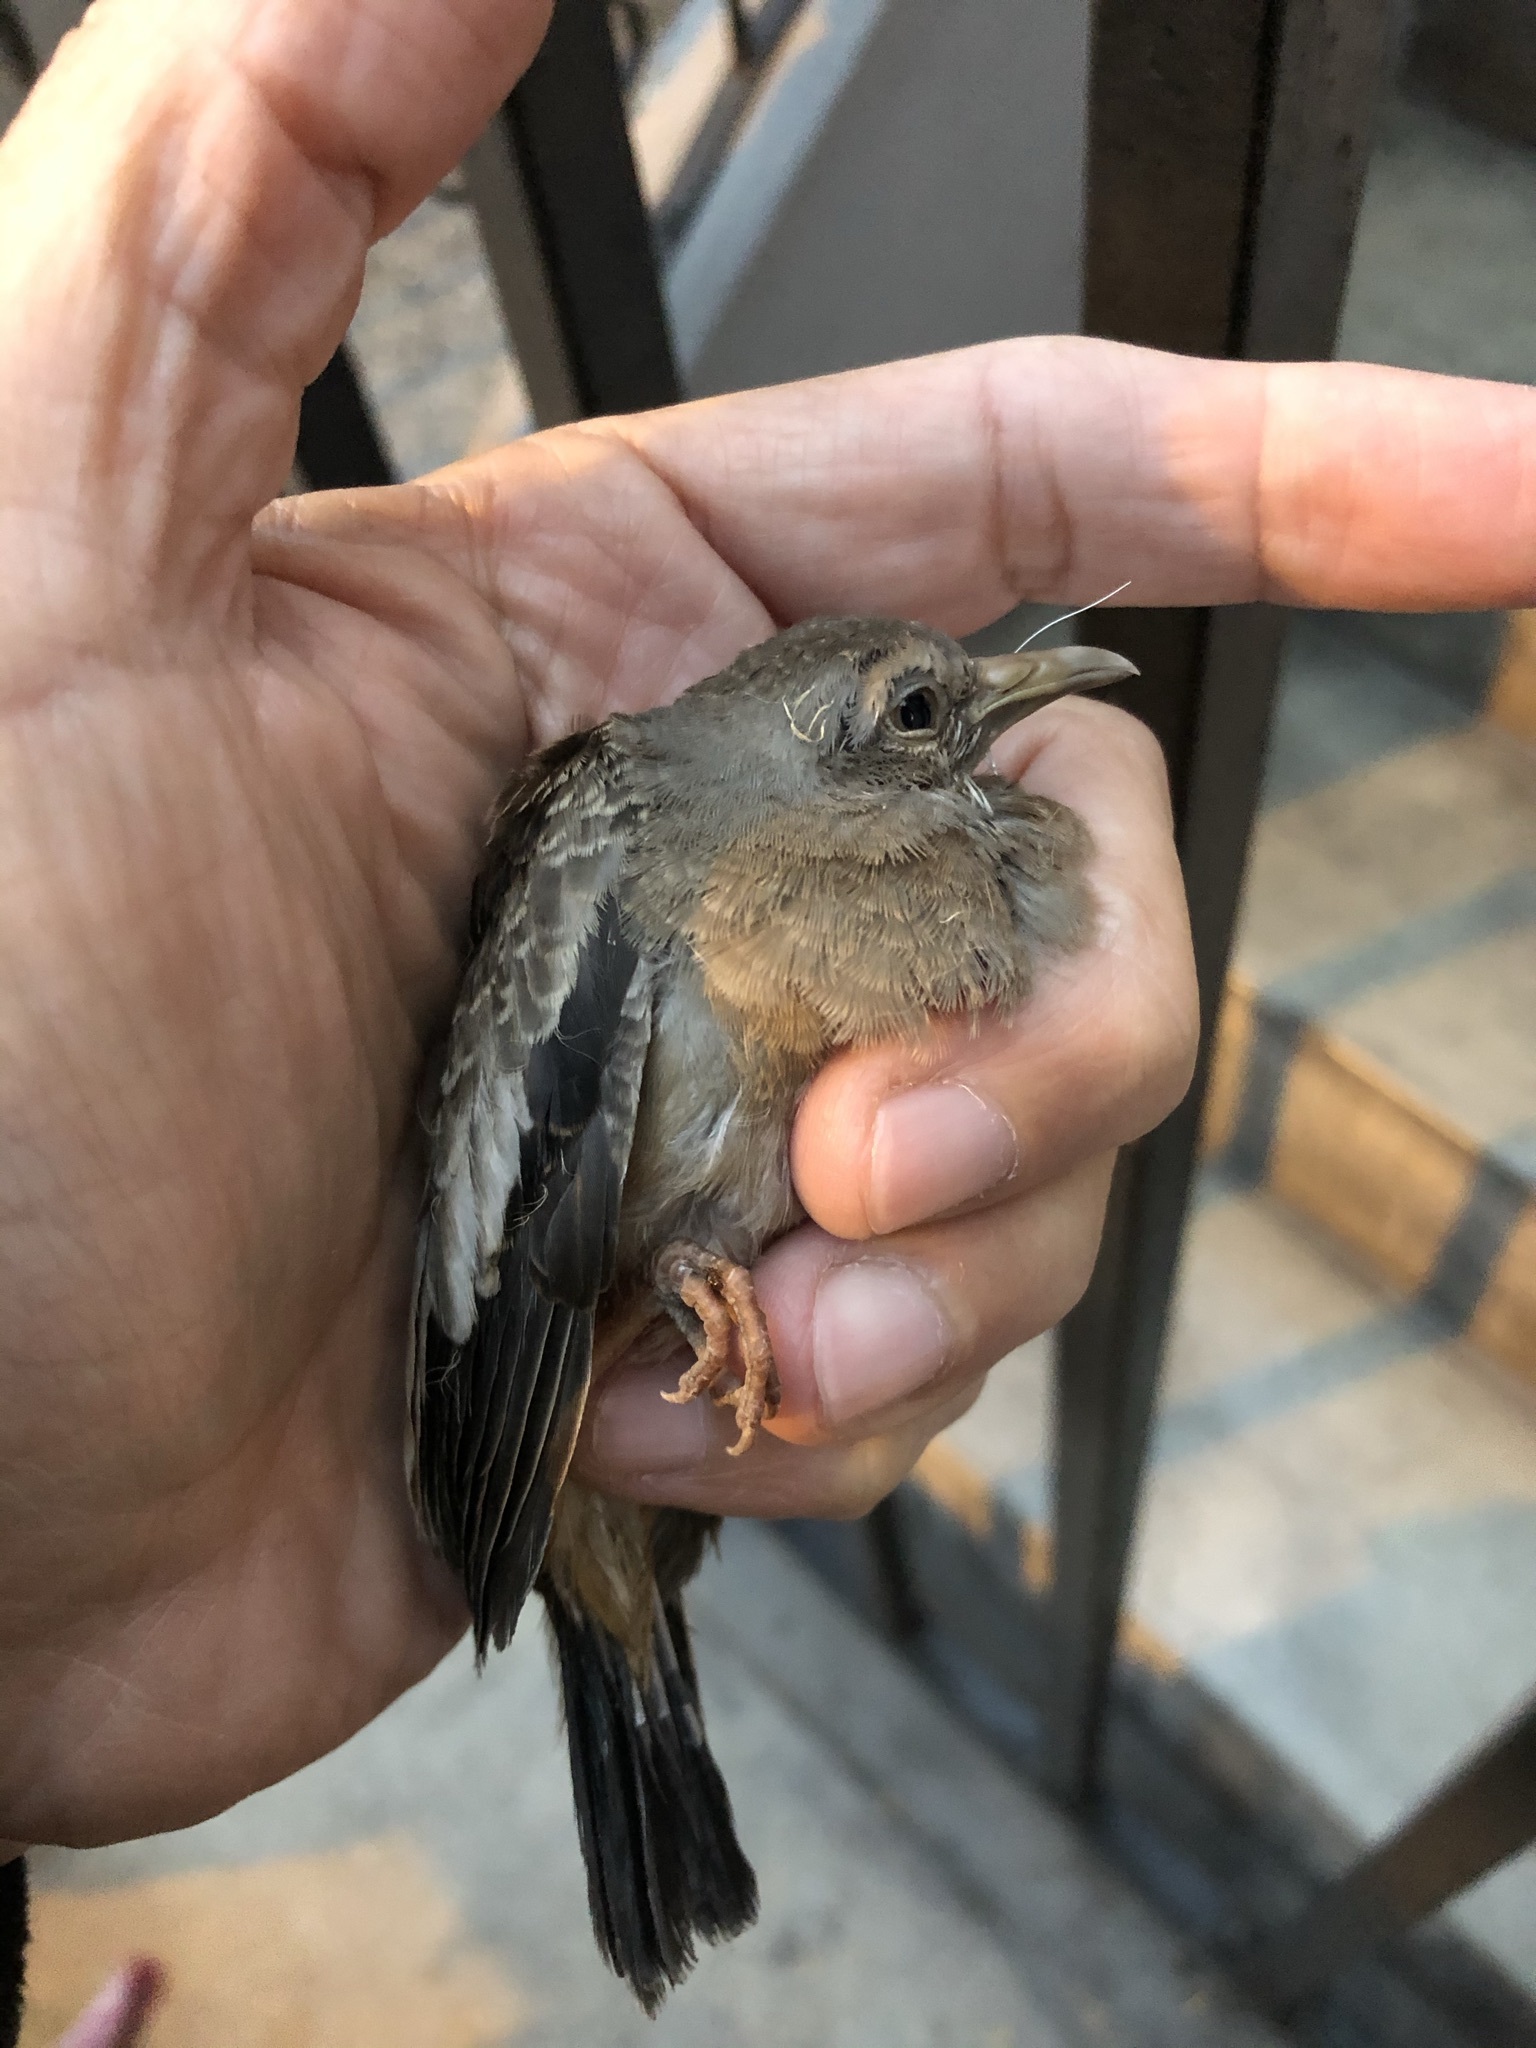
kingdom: Animalia
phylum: Chordata
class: Aves
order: Columbiformes
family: Columbidae
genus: Zenaida
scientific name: Zenaida meloda
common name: West peruvian dove
